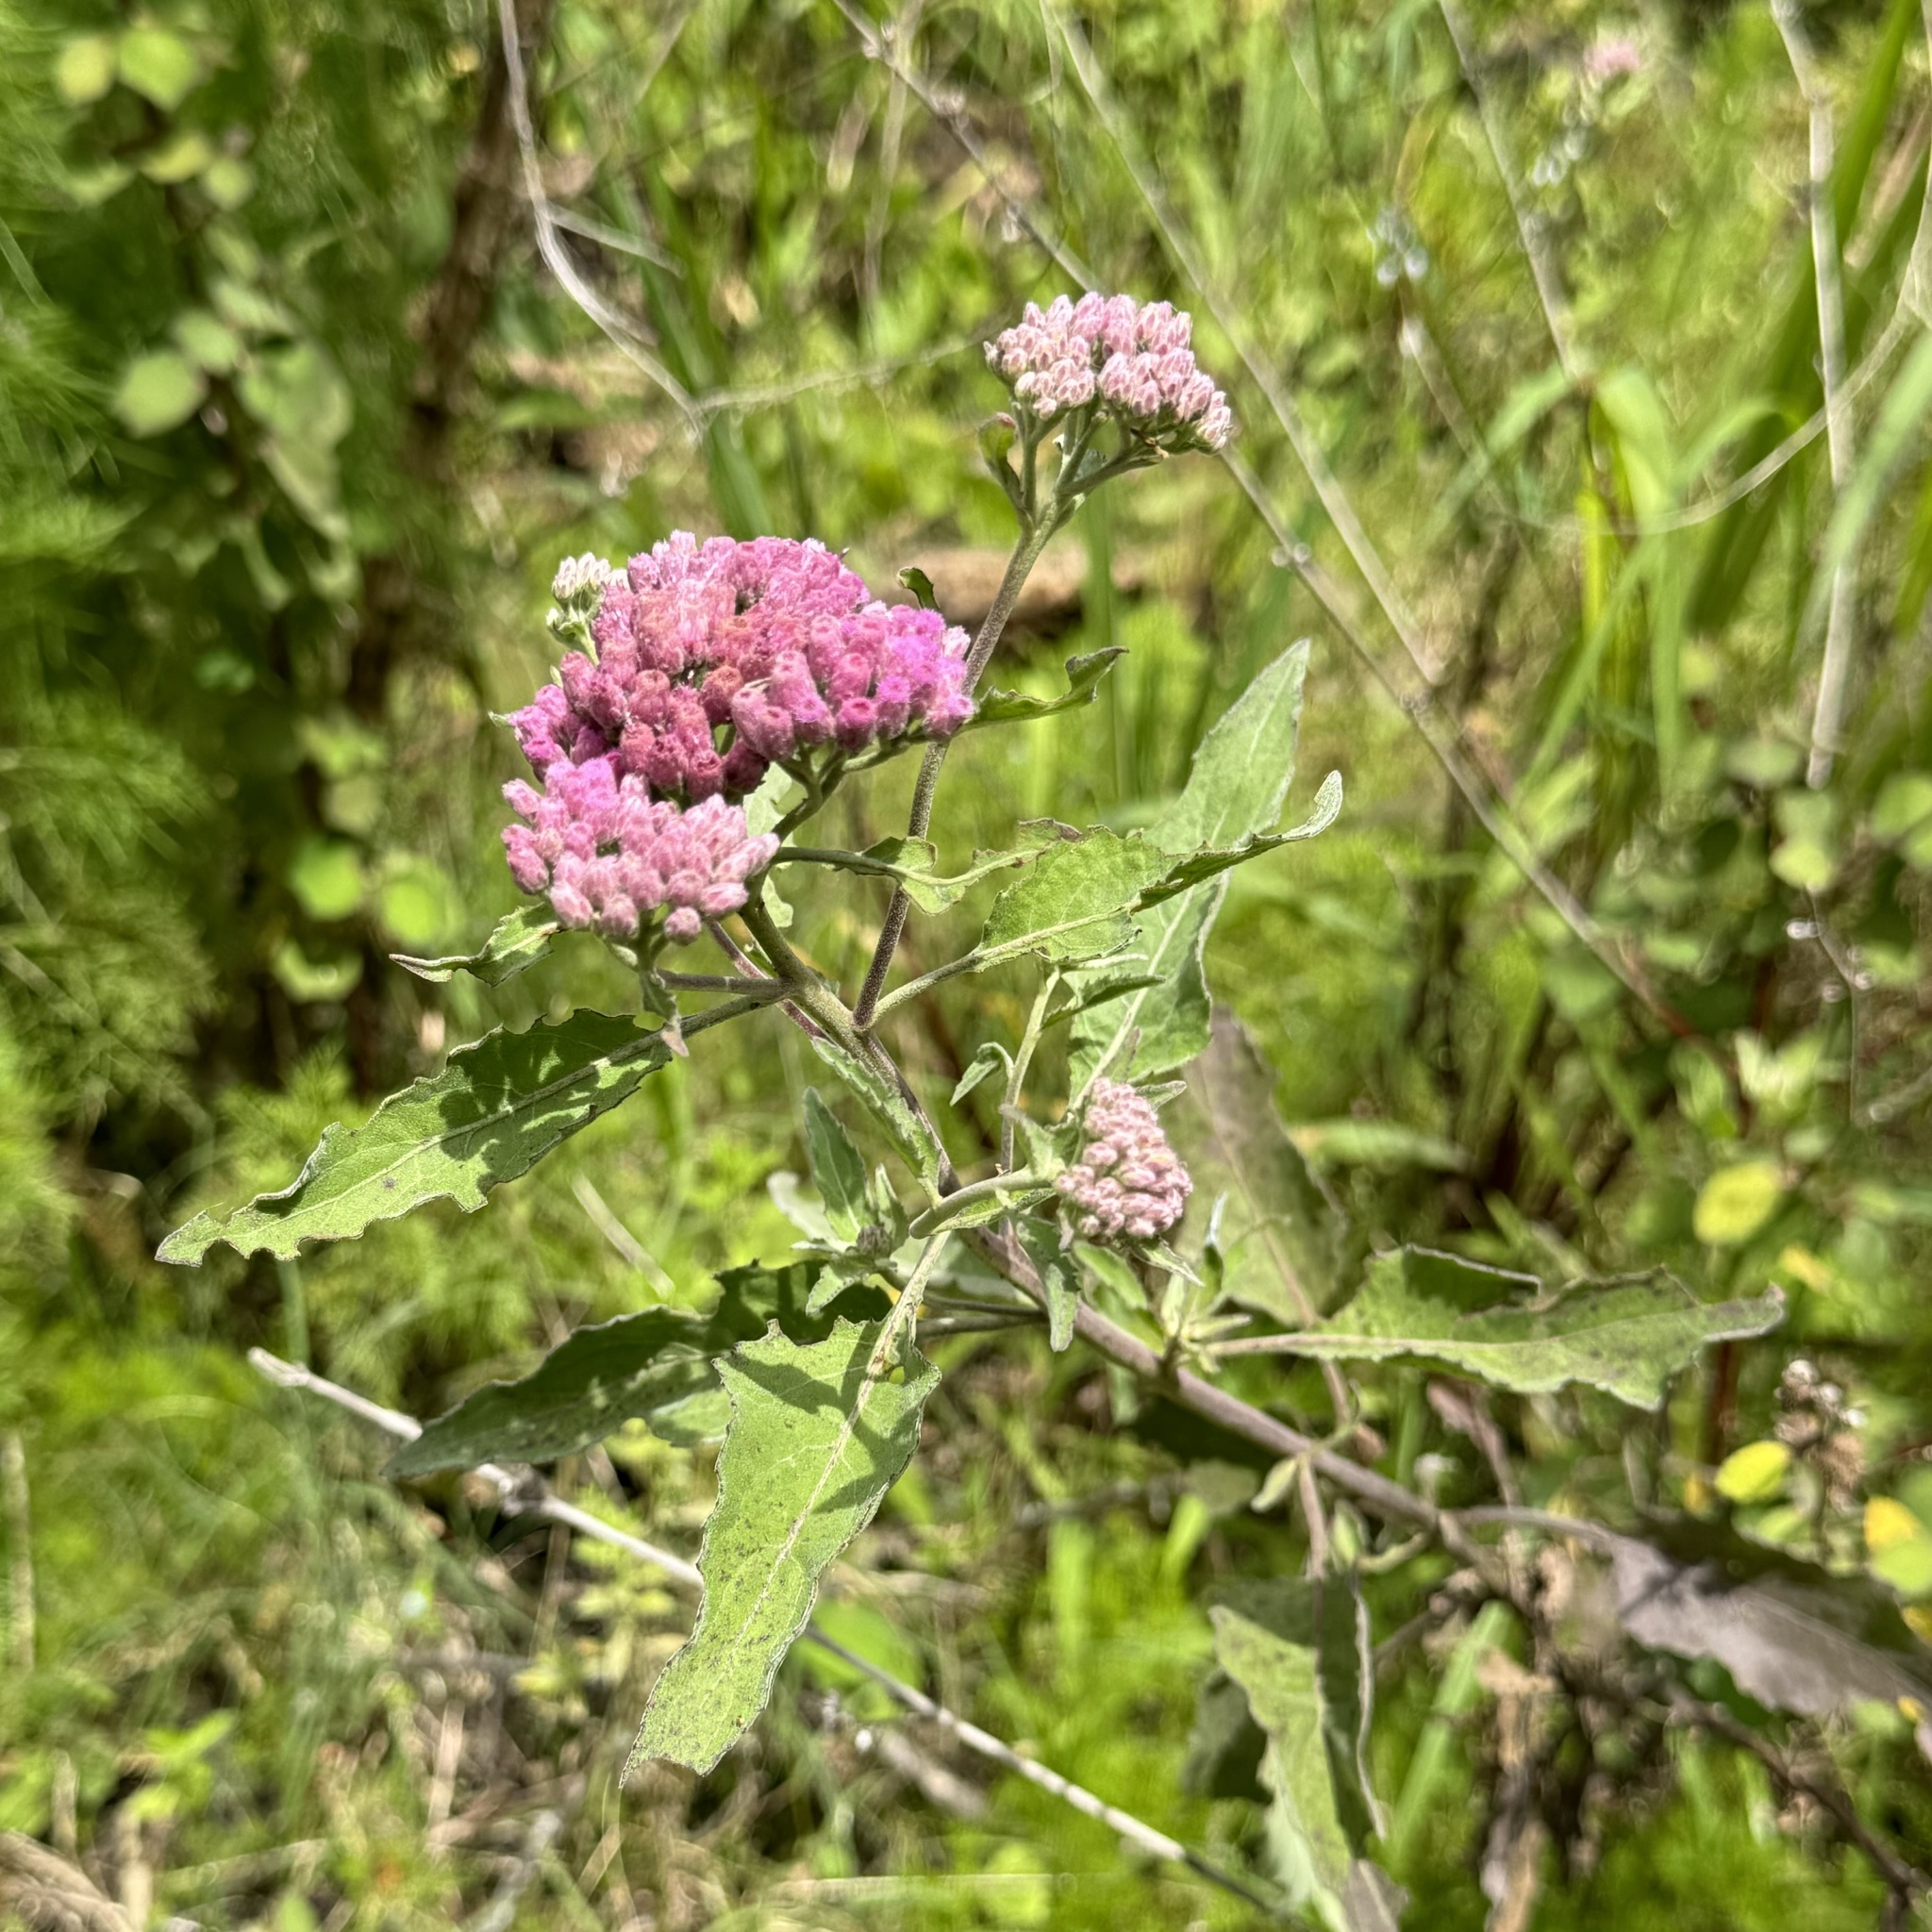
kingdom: Plantae
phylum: Tracheophyta
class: Magnoliopsida
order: Asterales
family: Asteraceae
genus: Pluchea
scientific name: Pluchea odorata
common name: Saltmarsh fleabane
